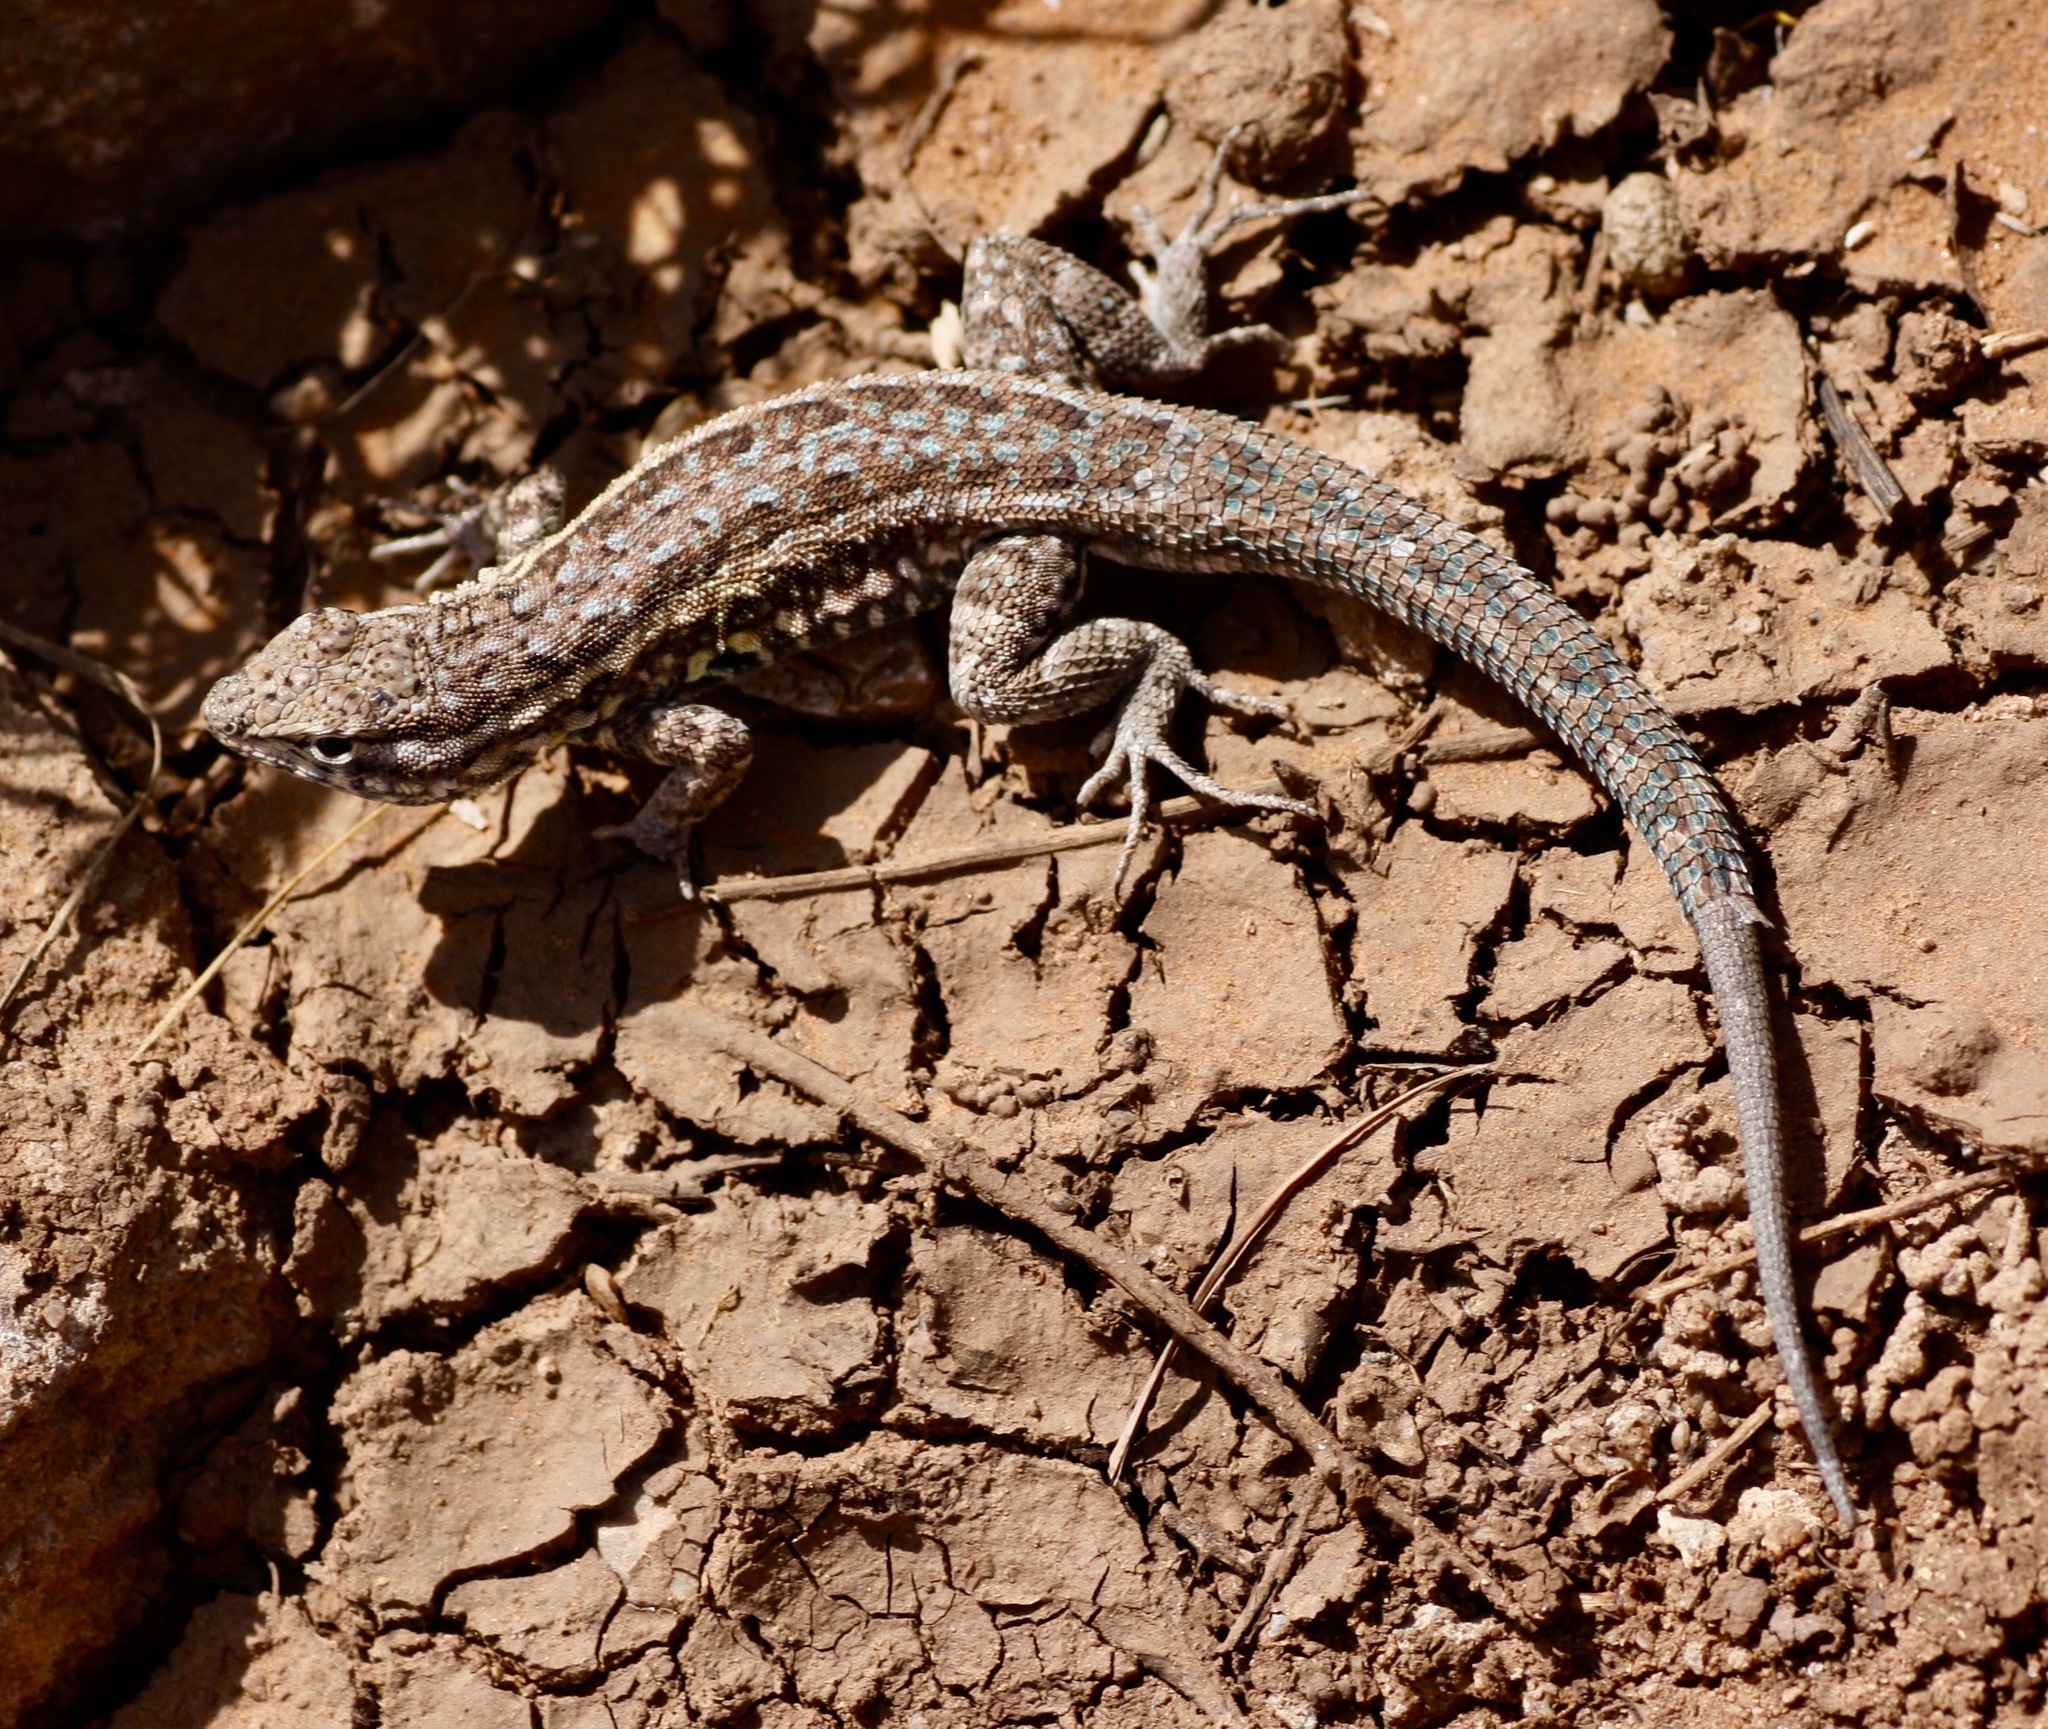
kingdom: Animalia
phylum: Chordata
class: Squamata
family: Phrynosomatidae
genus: Uta
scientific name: Uta stansburiana
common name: Side-blotched lizard
